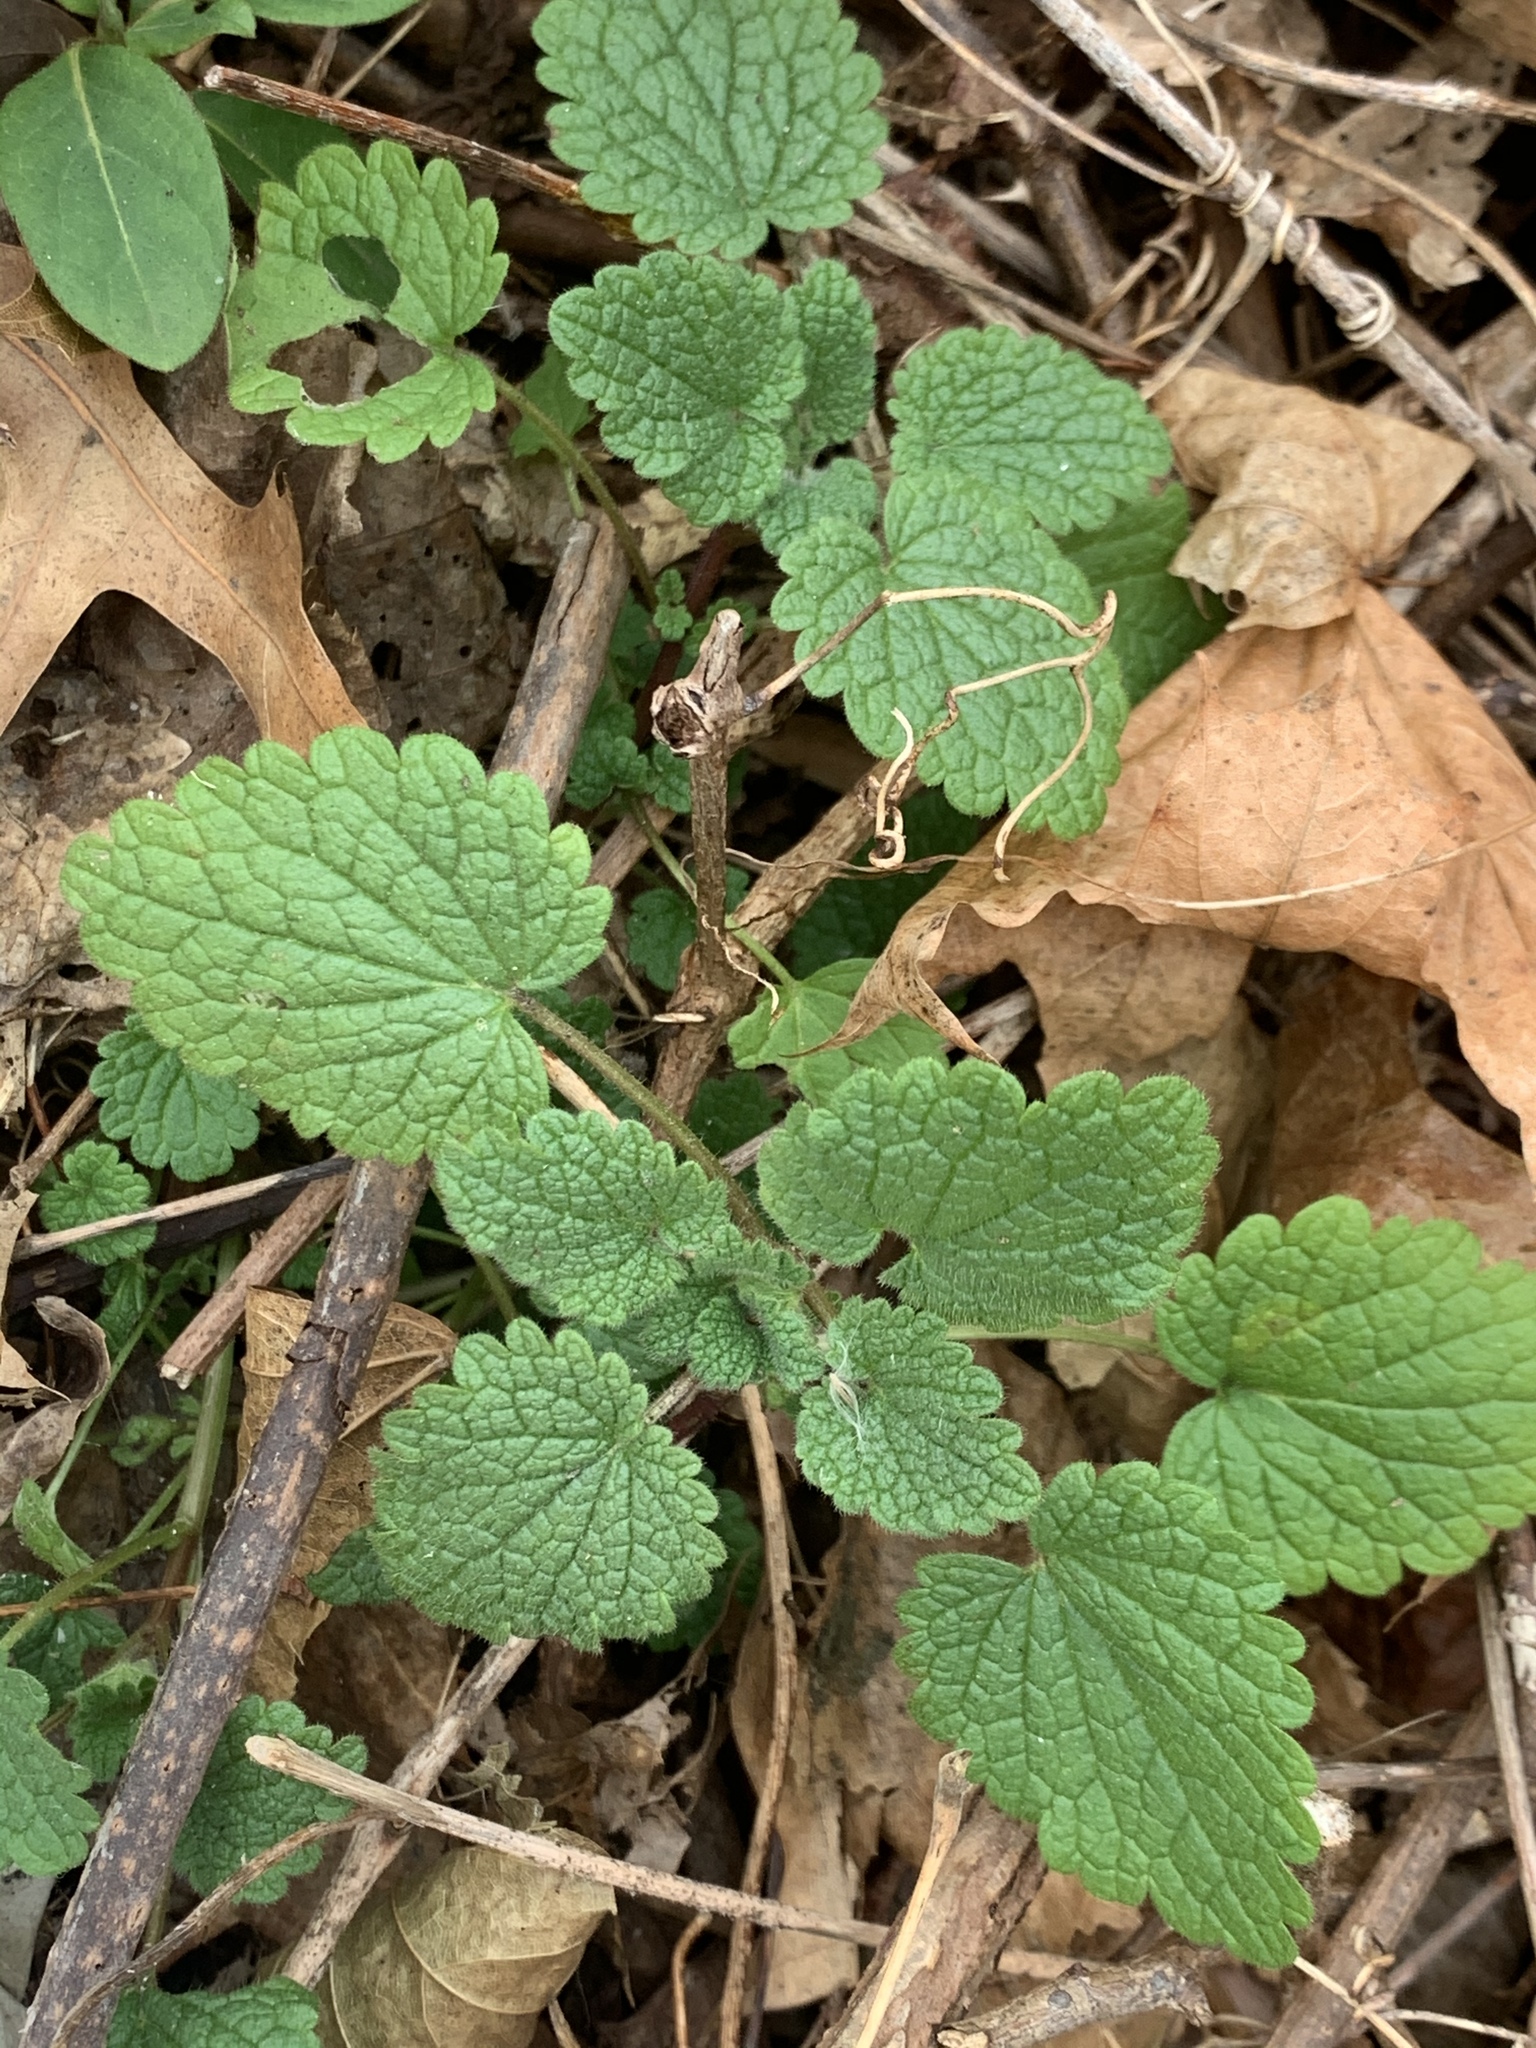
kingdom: Plantae
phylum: Tracheophyta
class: Magnoliopsida
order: Lamiales
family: Lamiaceae
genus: Lamium
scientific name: Lamium purpureum
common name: Red dead-nettle
